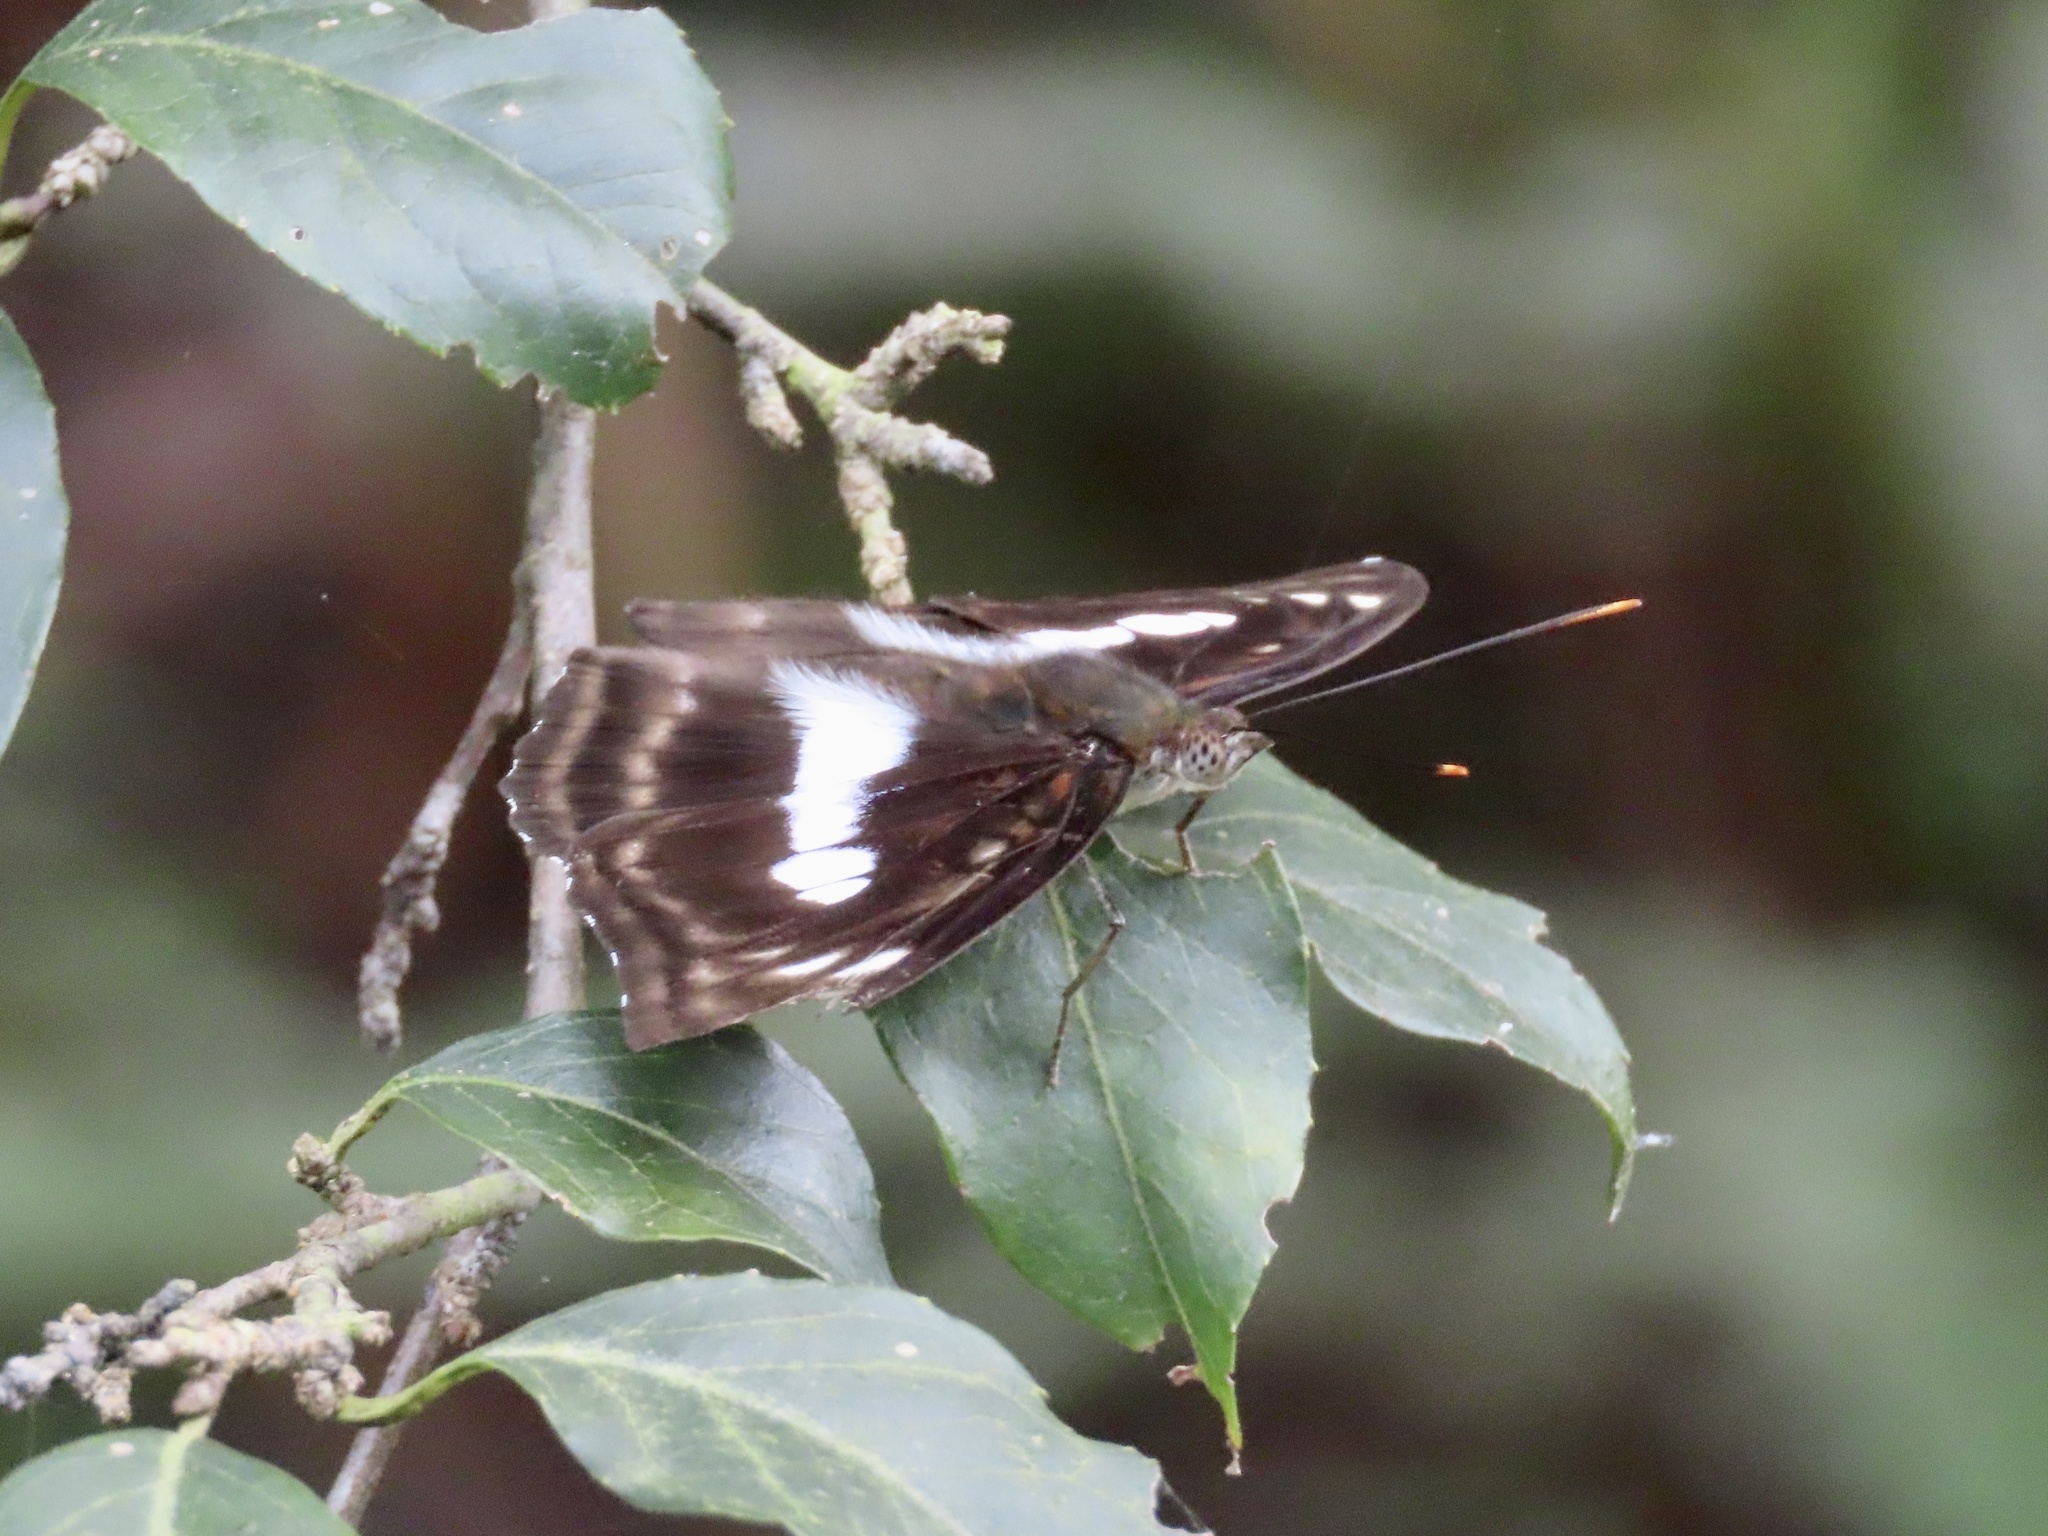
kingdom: Animalia
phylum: Arthropoda
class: Insecta
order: Lepidoptera
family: Nymphalidae
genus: Parathyma
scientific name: Parathyma selenophora
